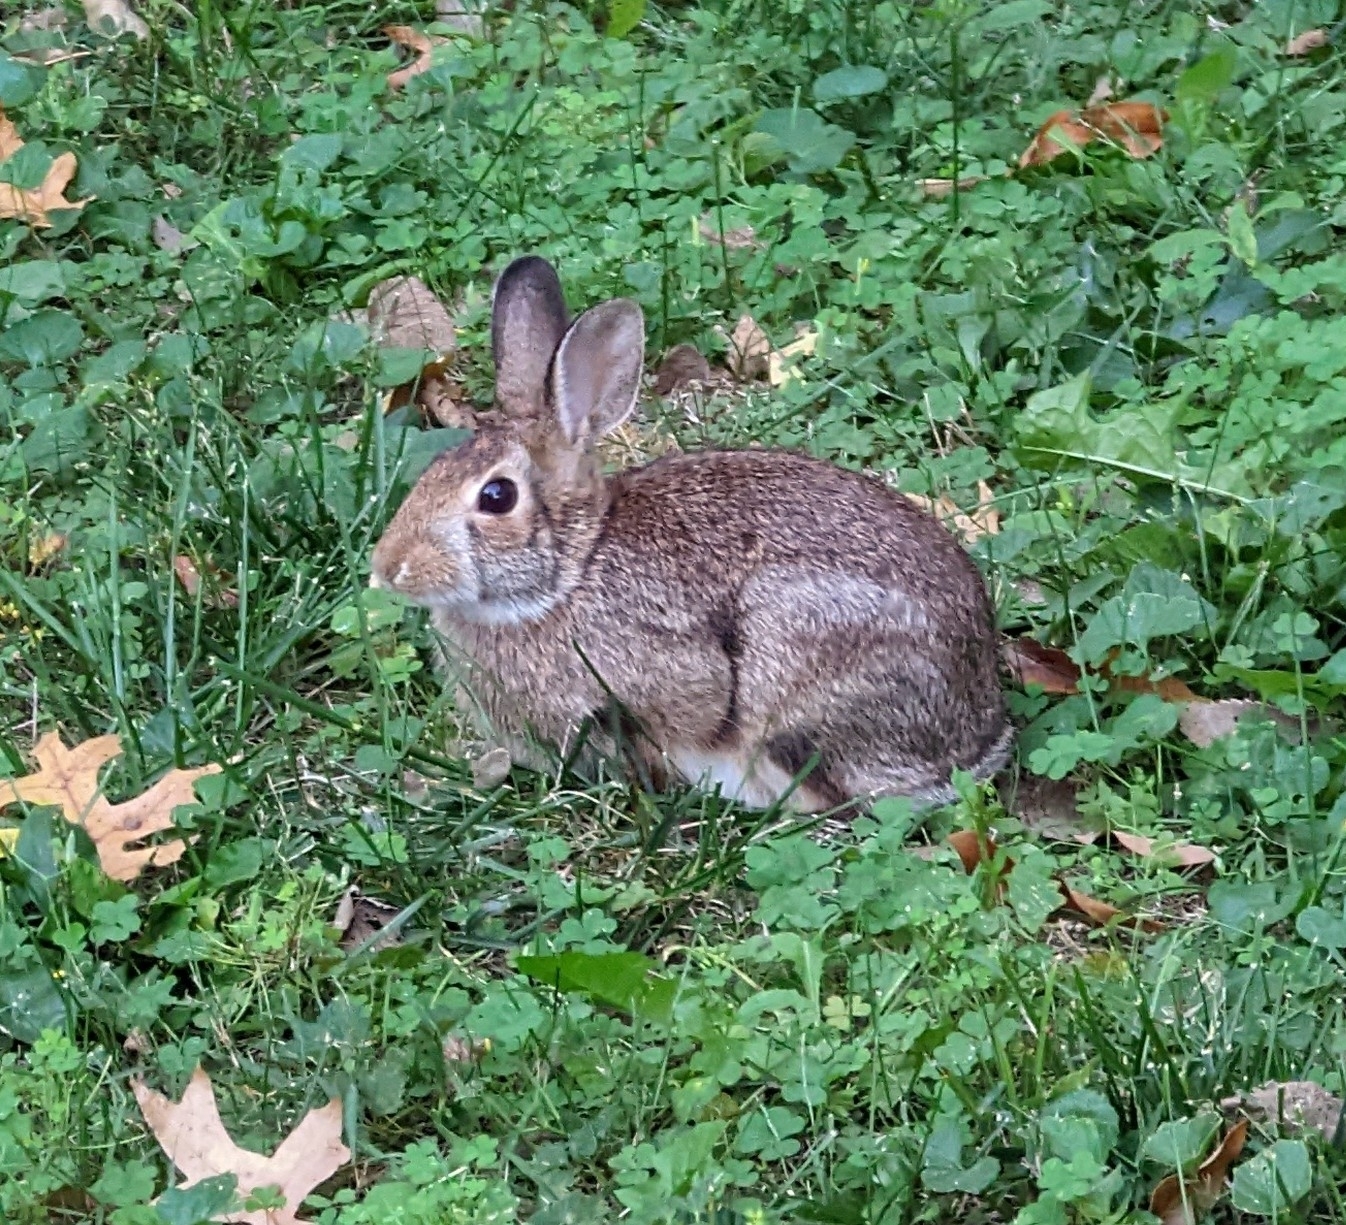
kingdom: Animalia
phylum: Chordata
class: Mammalia
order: Lagomorpha
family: Leporidae
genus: Sylvilagus
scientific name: Sylvilagus floridanus
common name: Eastern cottontail
